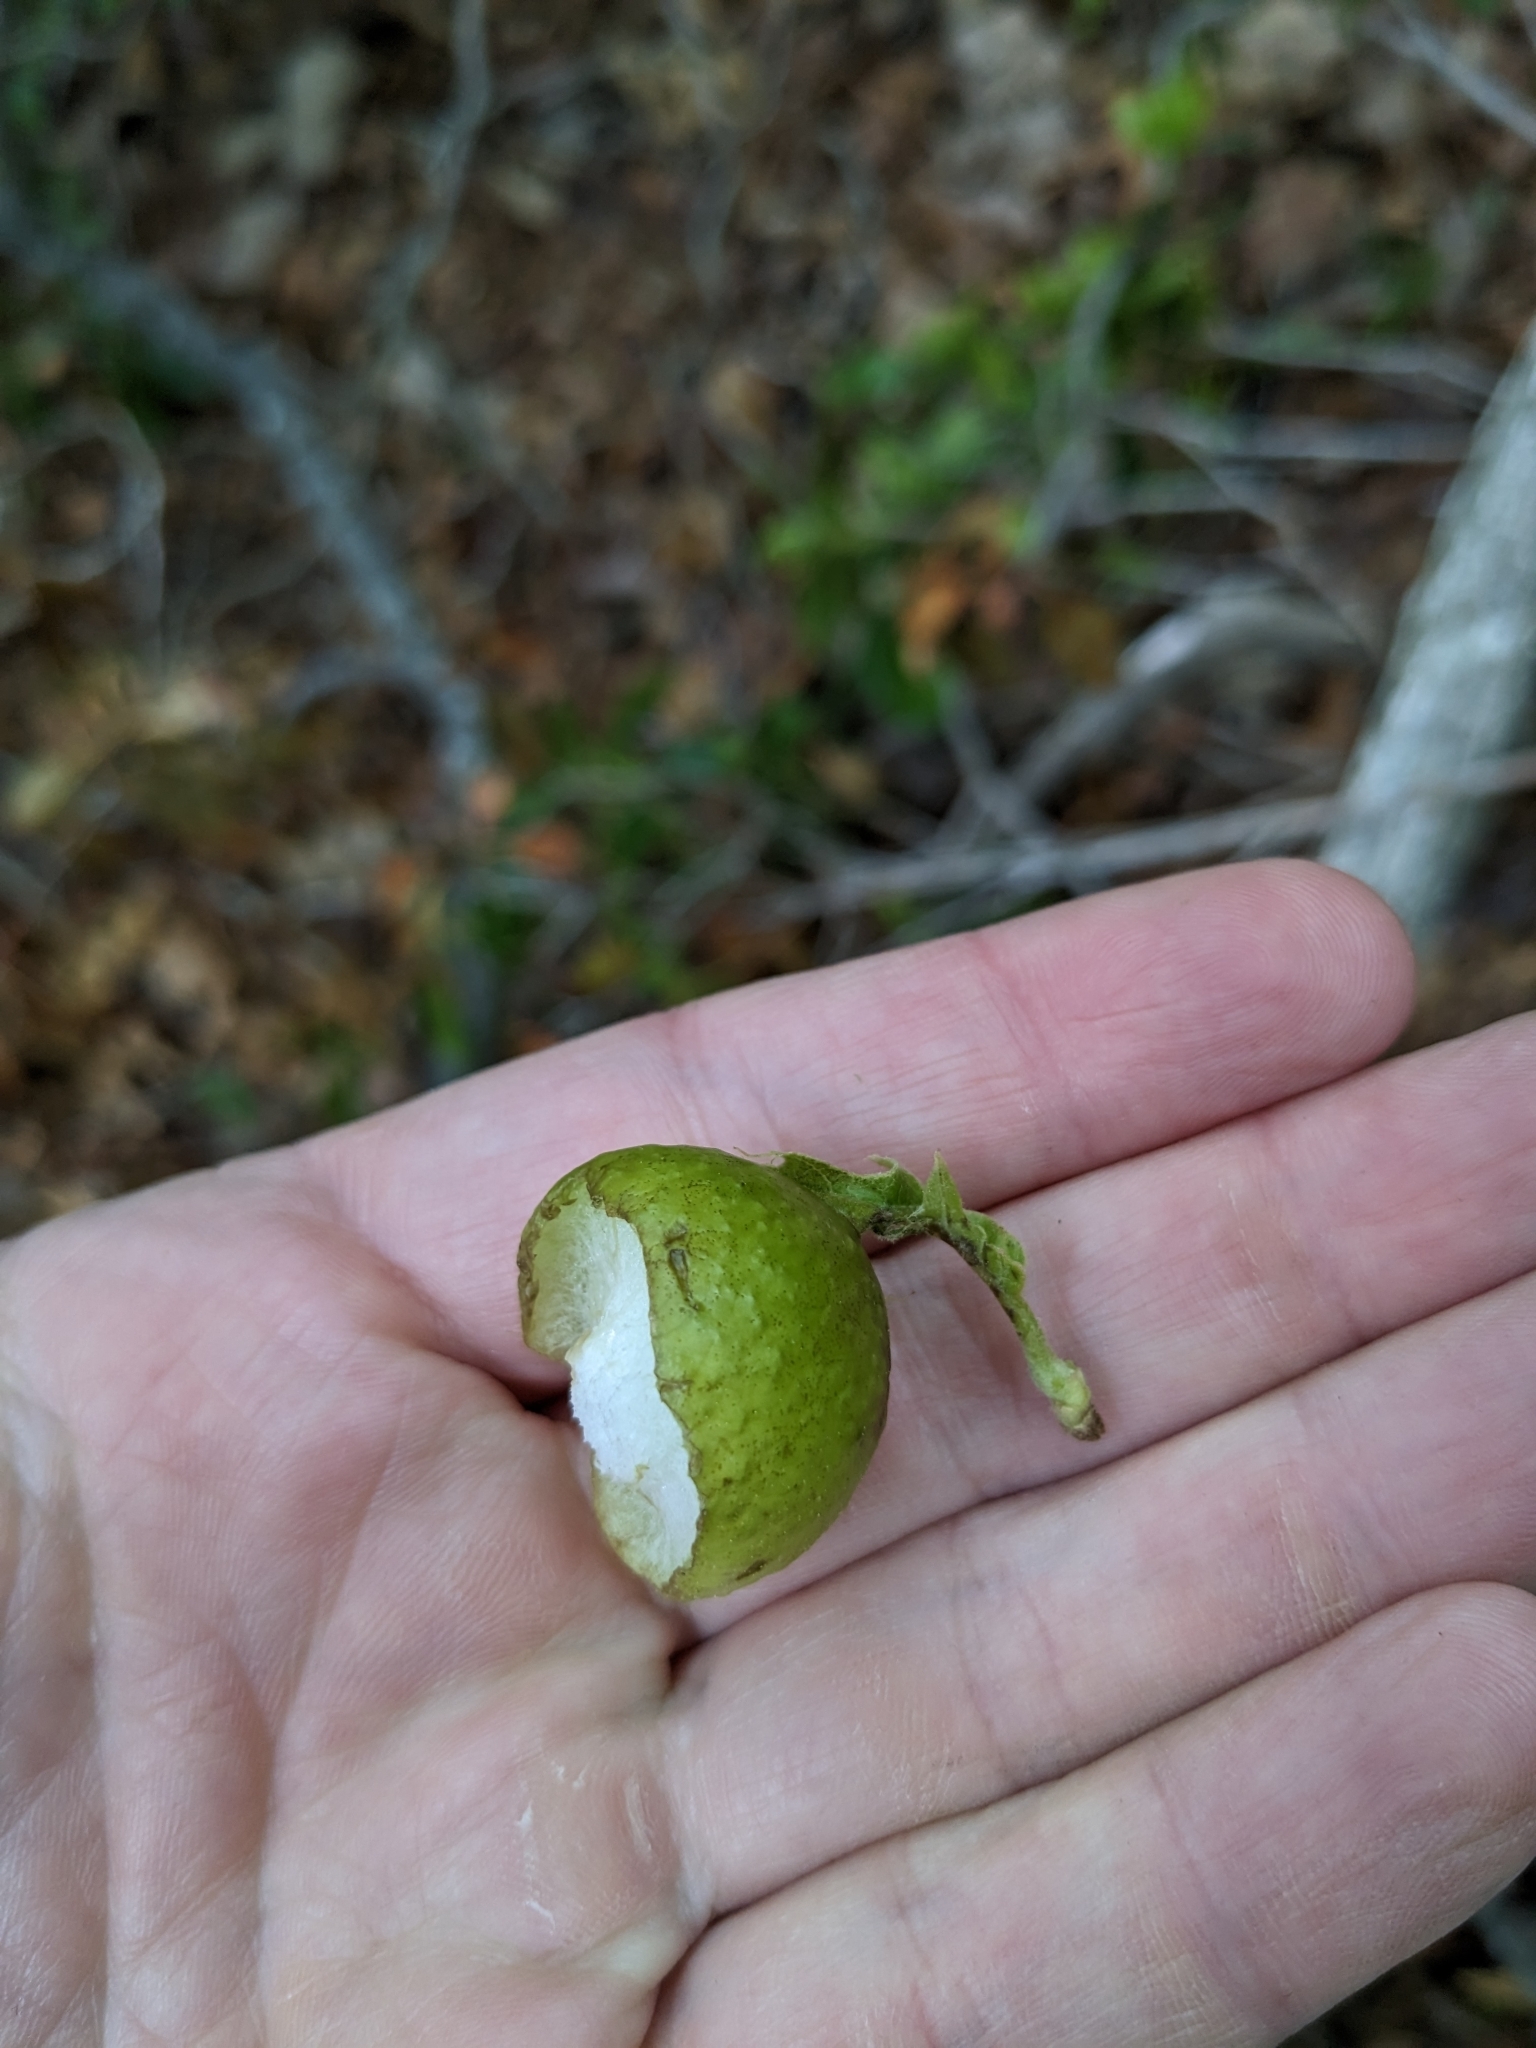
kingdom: Animalia
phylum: Arthropoda
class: Insecta
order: Hymenoptera
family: Cynipidae
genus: Amphibolips
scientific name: Amphibolips
